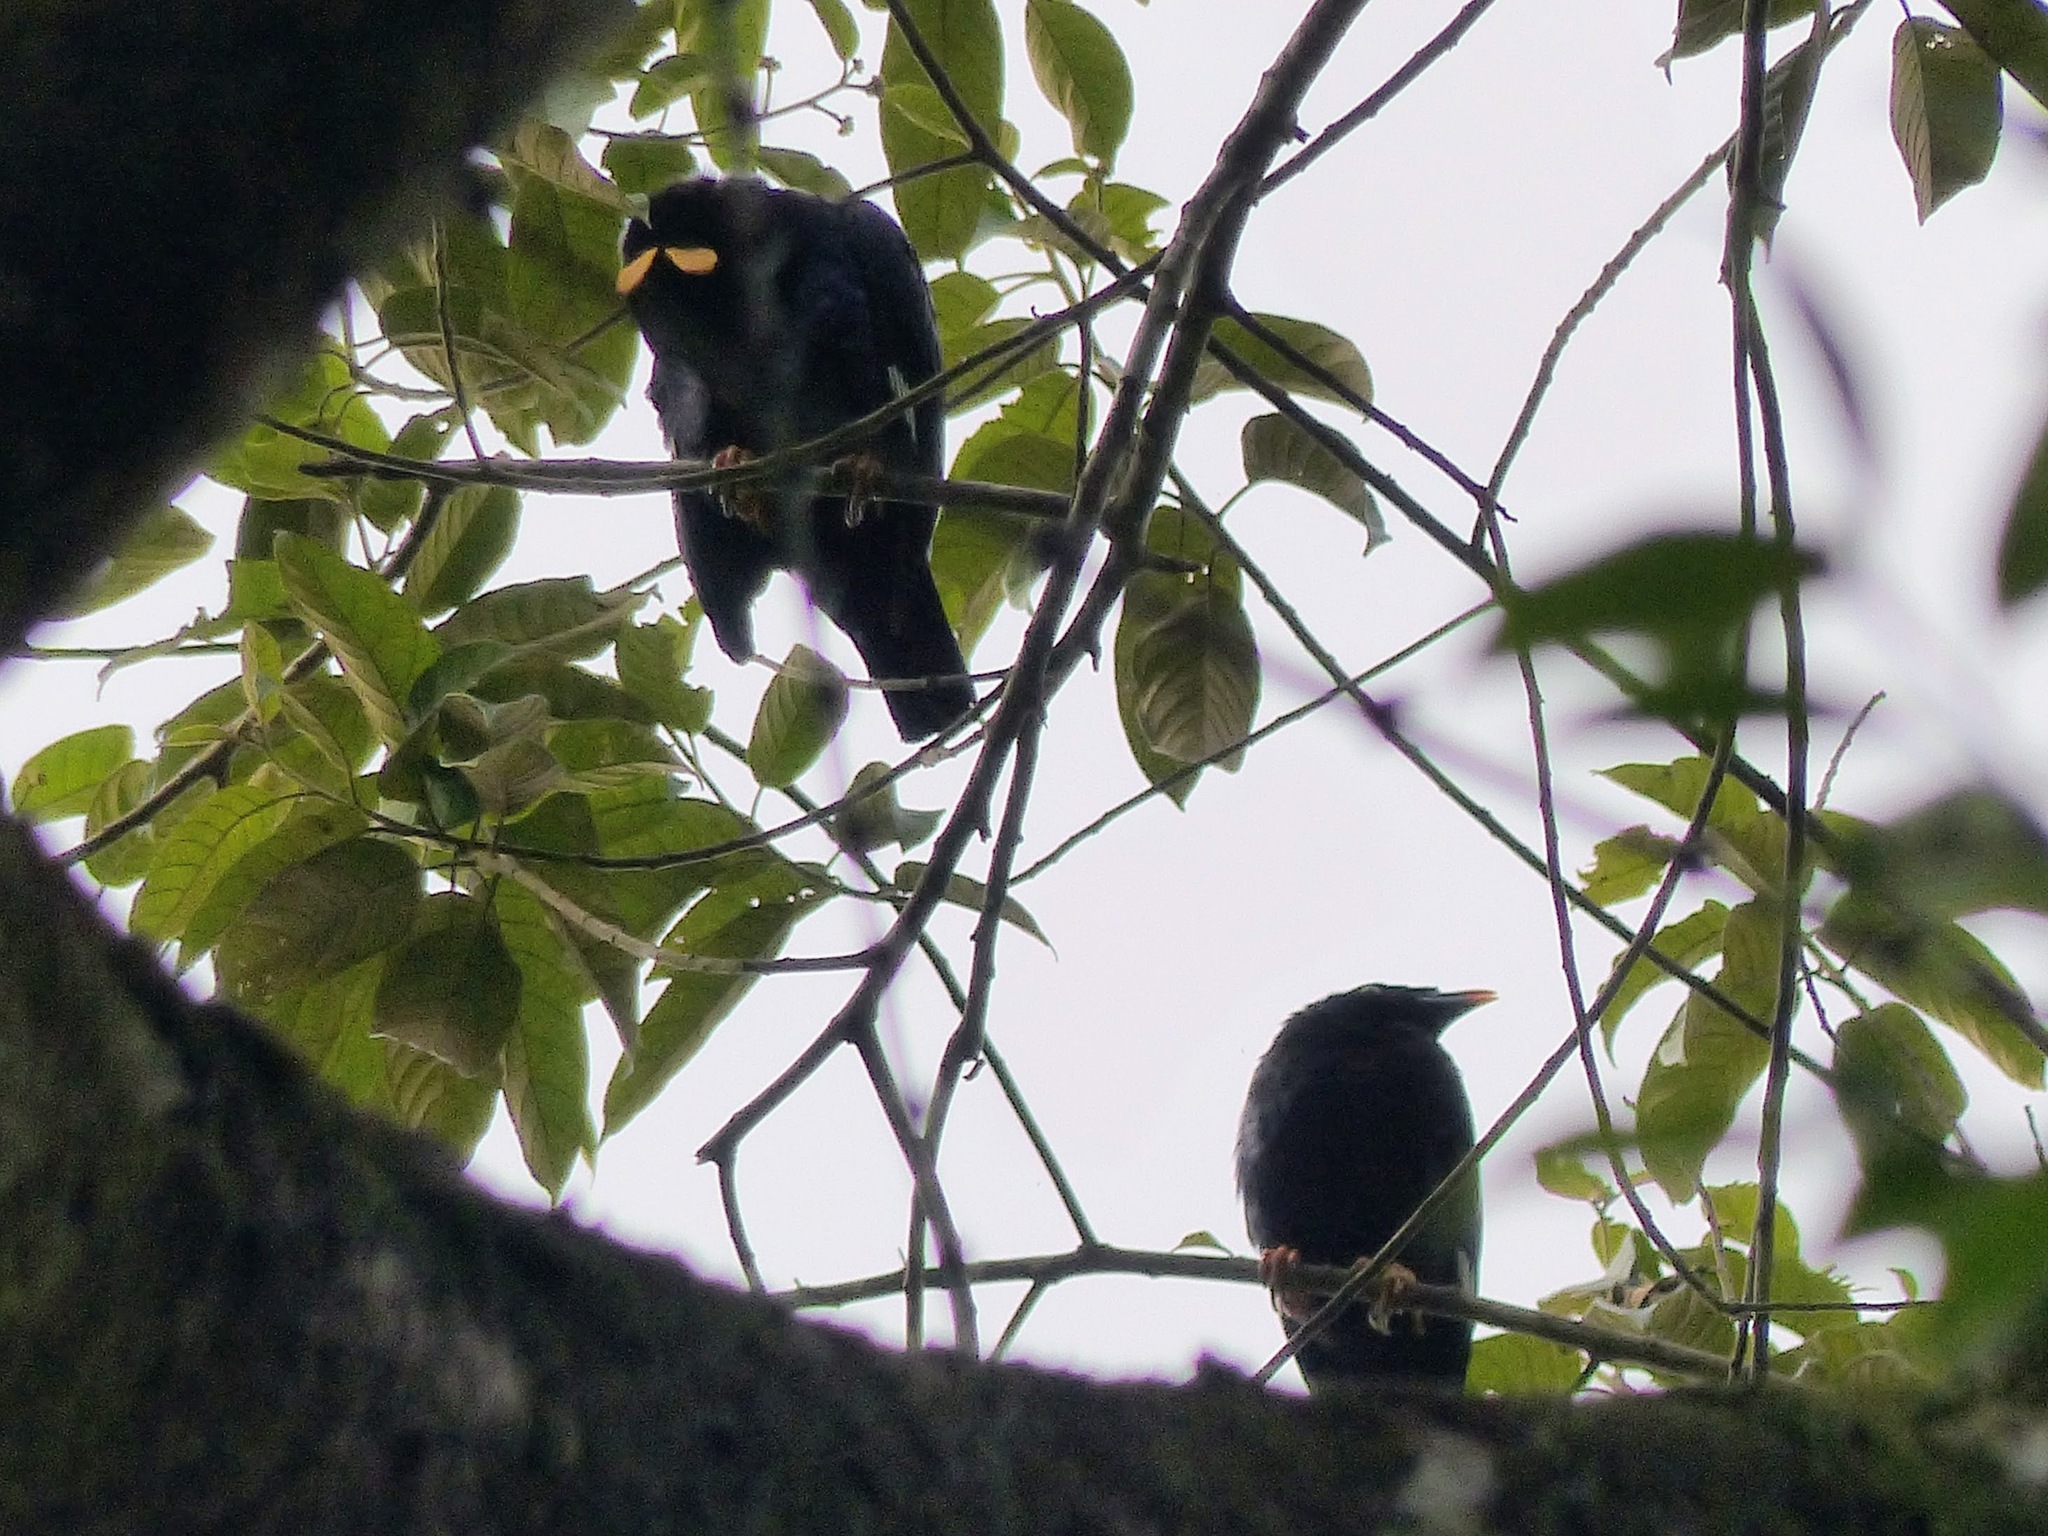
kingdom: Animalia
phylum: Chordata
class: Aves
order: Passeriformes
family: Sturnidae
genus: Gracula
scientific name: Gracula ptilogenys
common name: Sri lanka hill myna
